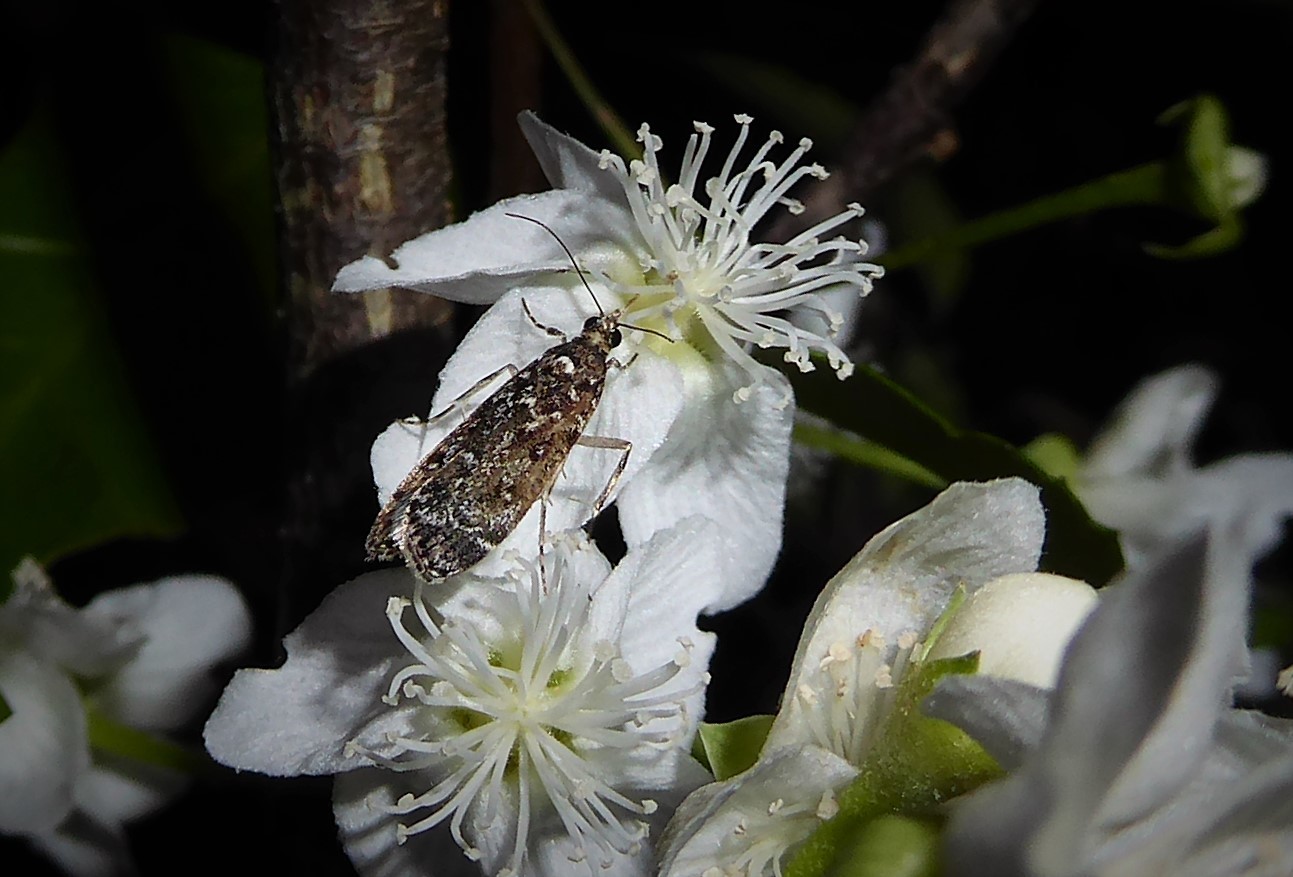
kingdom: Animalia
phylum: Arthropoda
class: Insecta
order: Lepidoptera
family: Crambidae
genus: Eudonia
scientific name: Eudonia philerga
